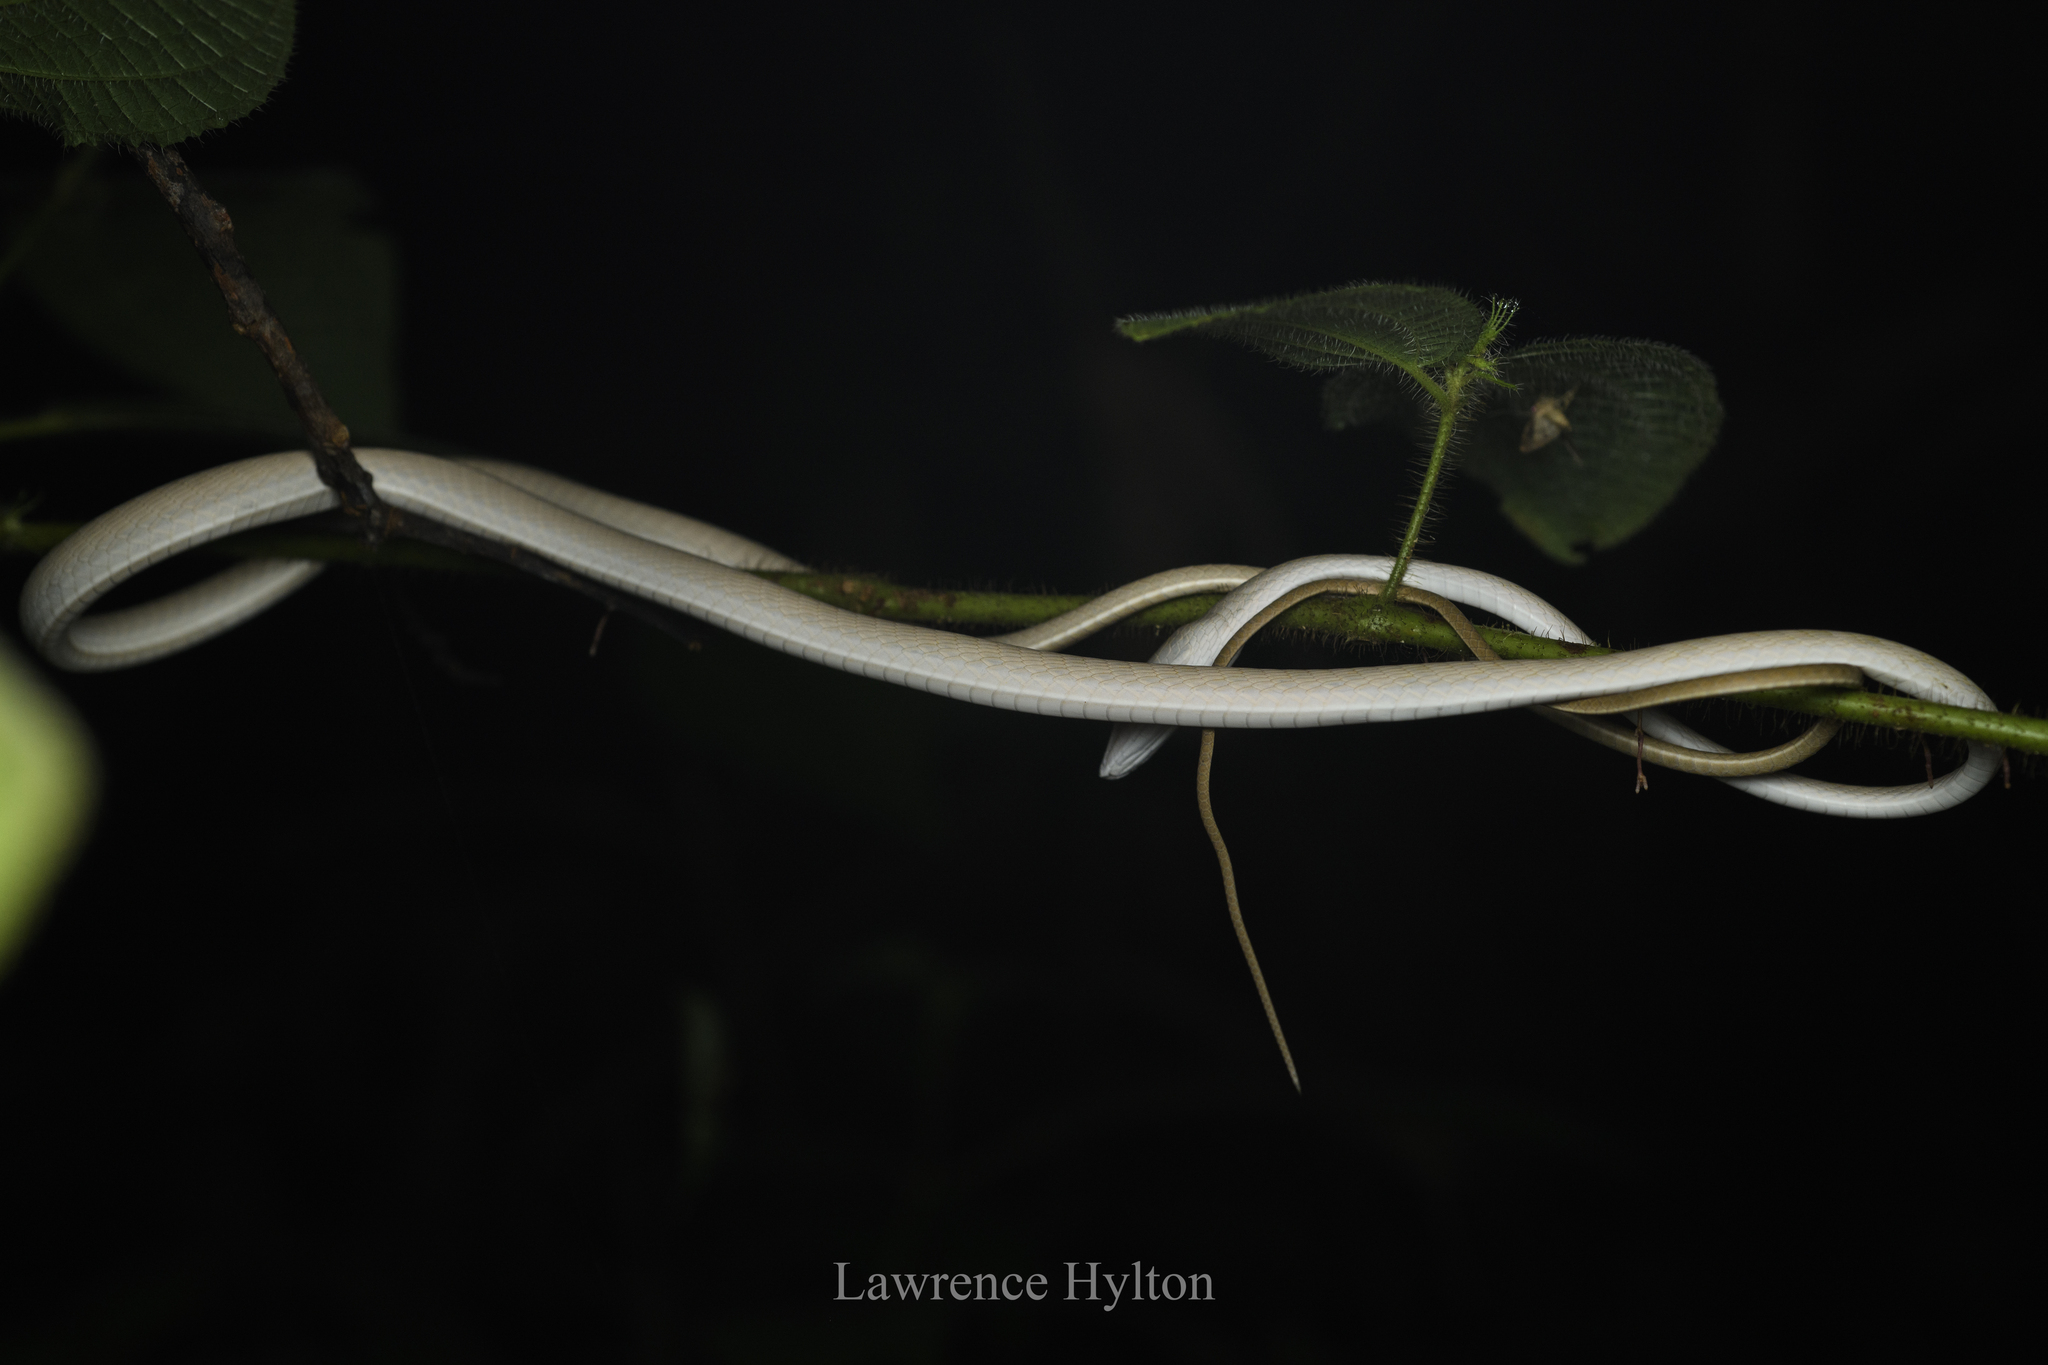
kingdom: Animalia
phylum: Chordata
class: Squamata
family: Colubridae
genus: Ahaetulla
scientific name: Ahaetulla prasina
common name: Oriental whip snake
